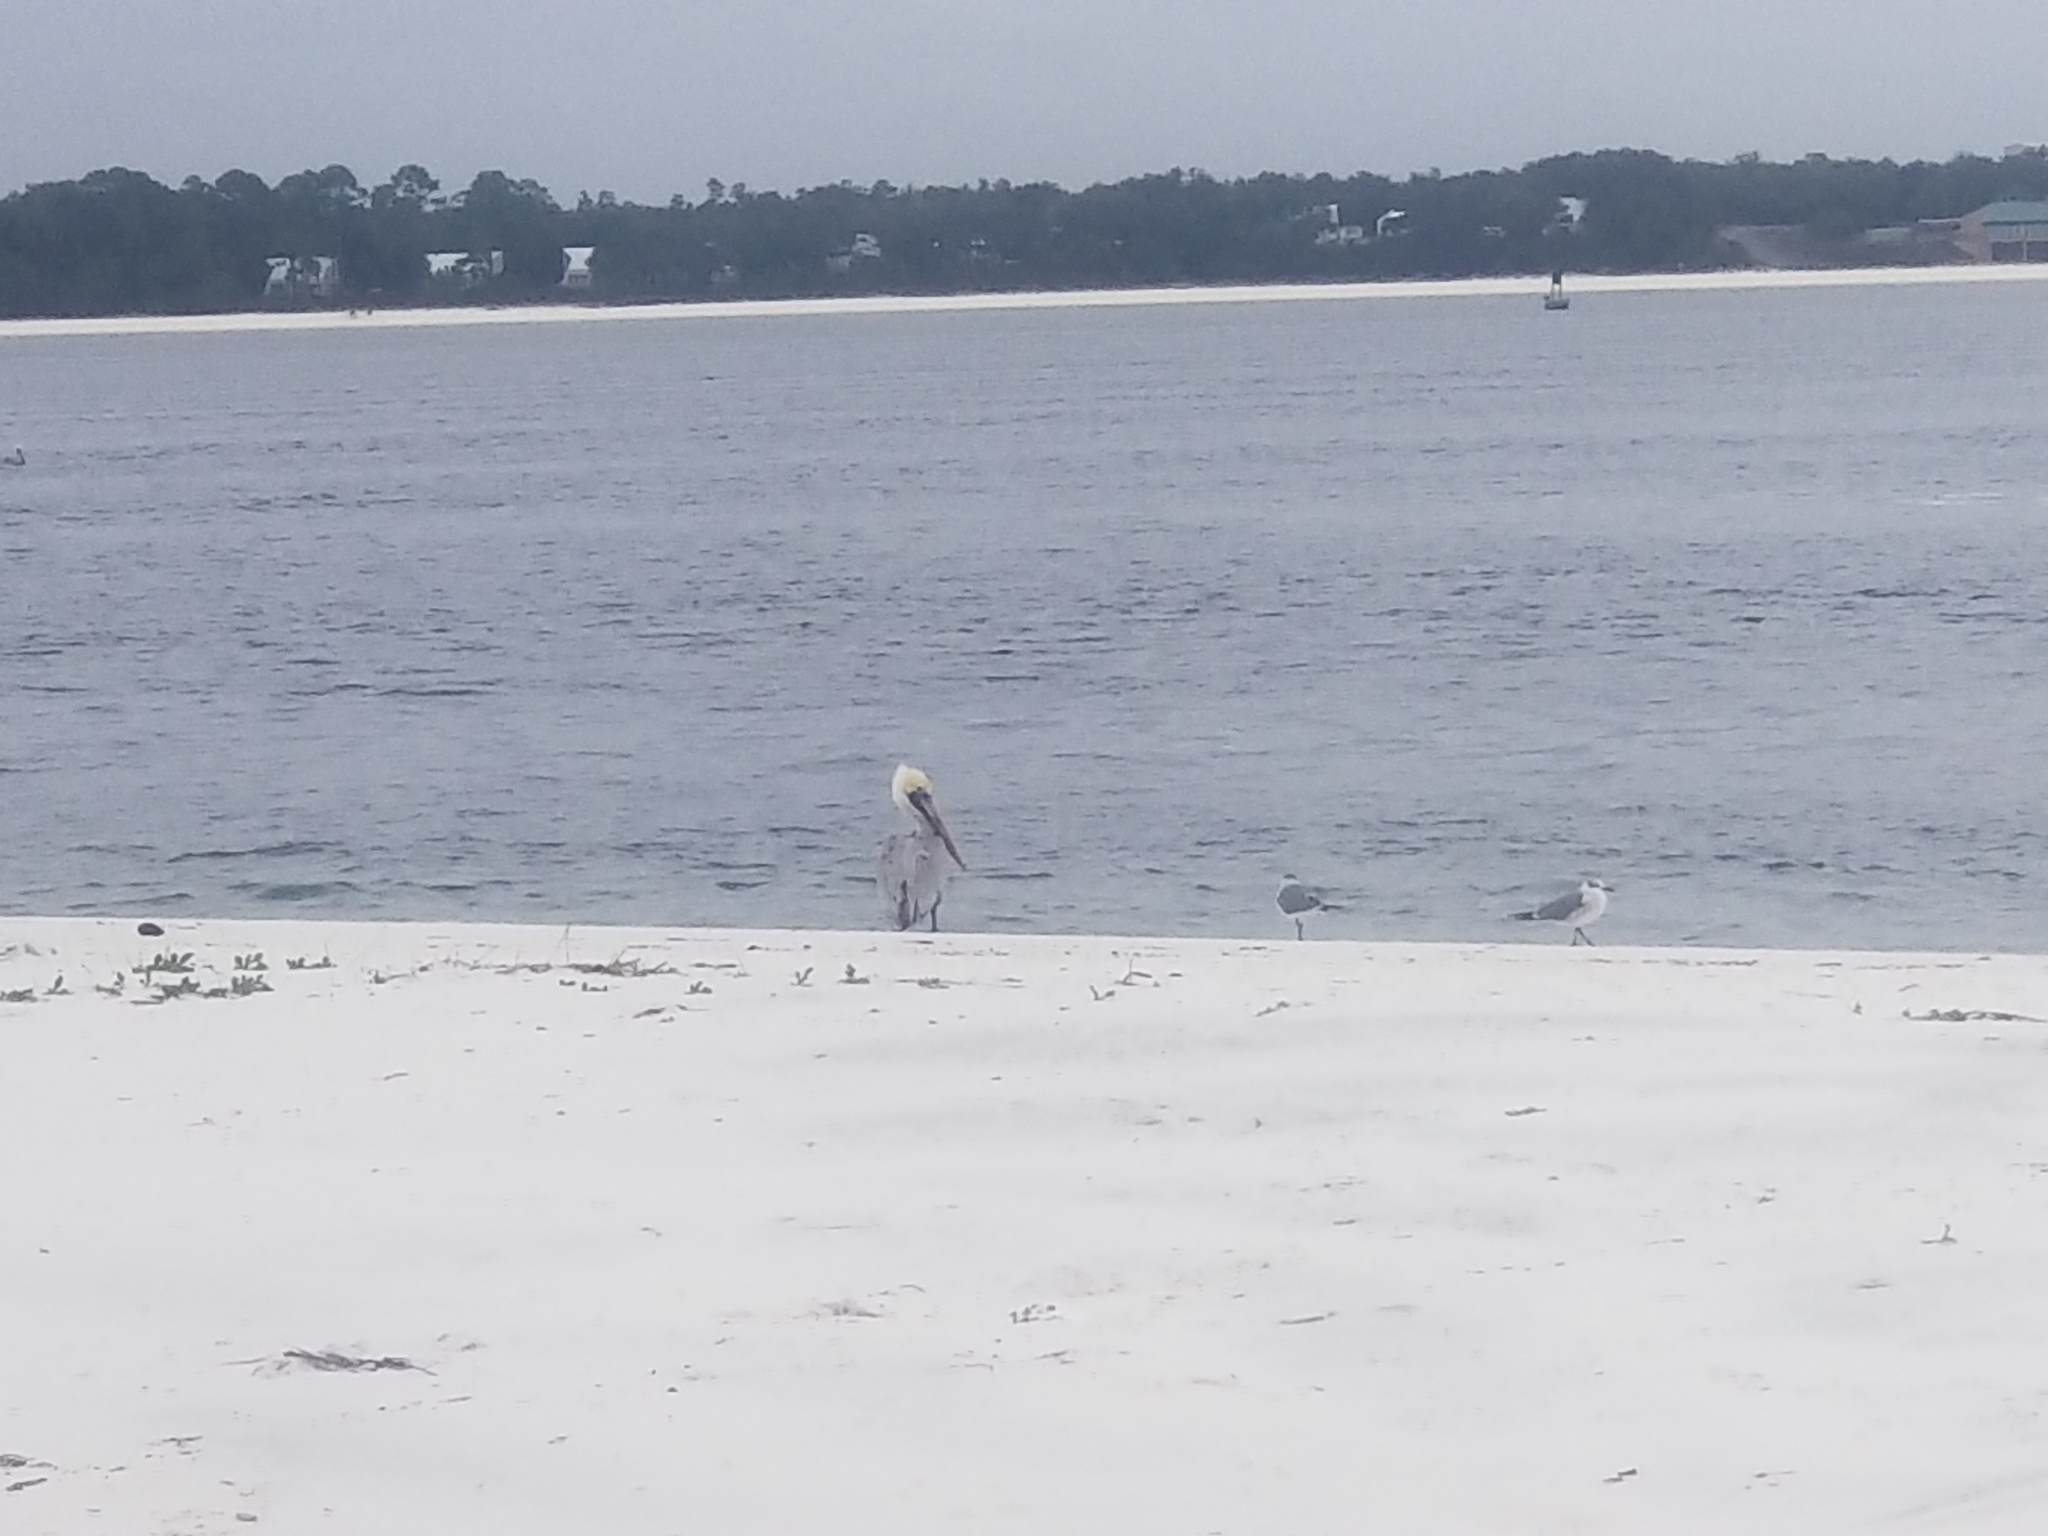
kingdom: Animalia
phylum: Chordata
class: Aves
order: Pelecaniformes
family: Pelecanidae
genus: Pelecanus
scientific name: Pelecanus occidentalis
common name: Brown pelican
